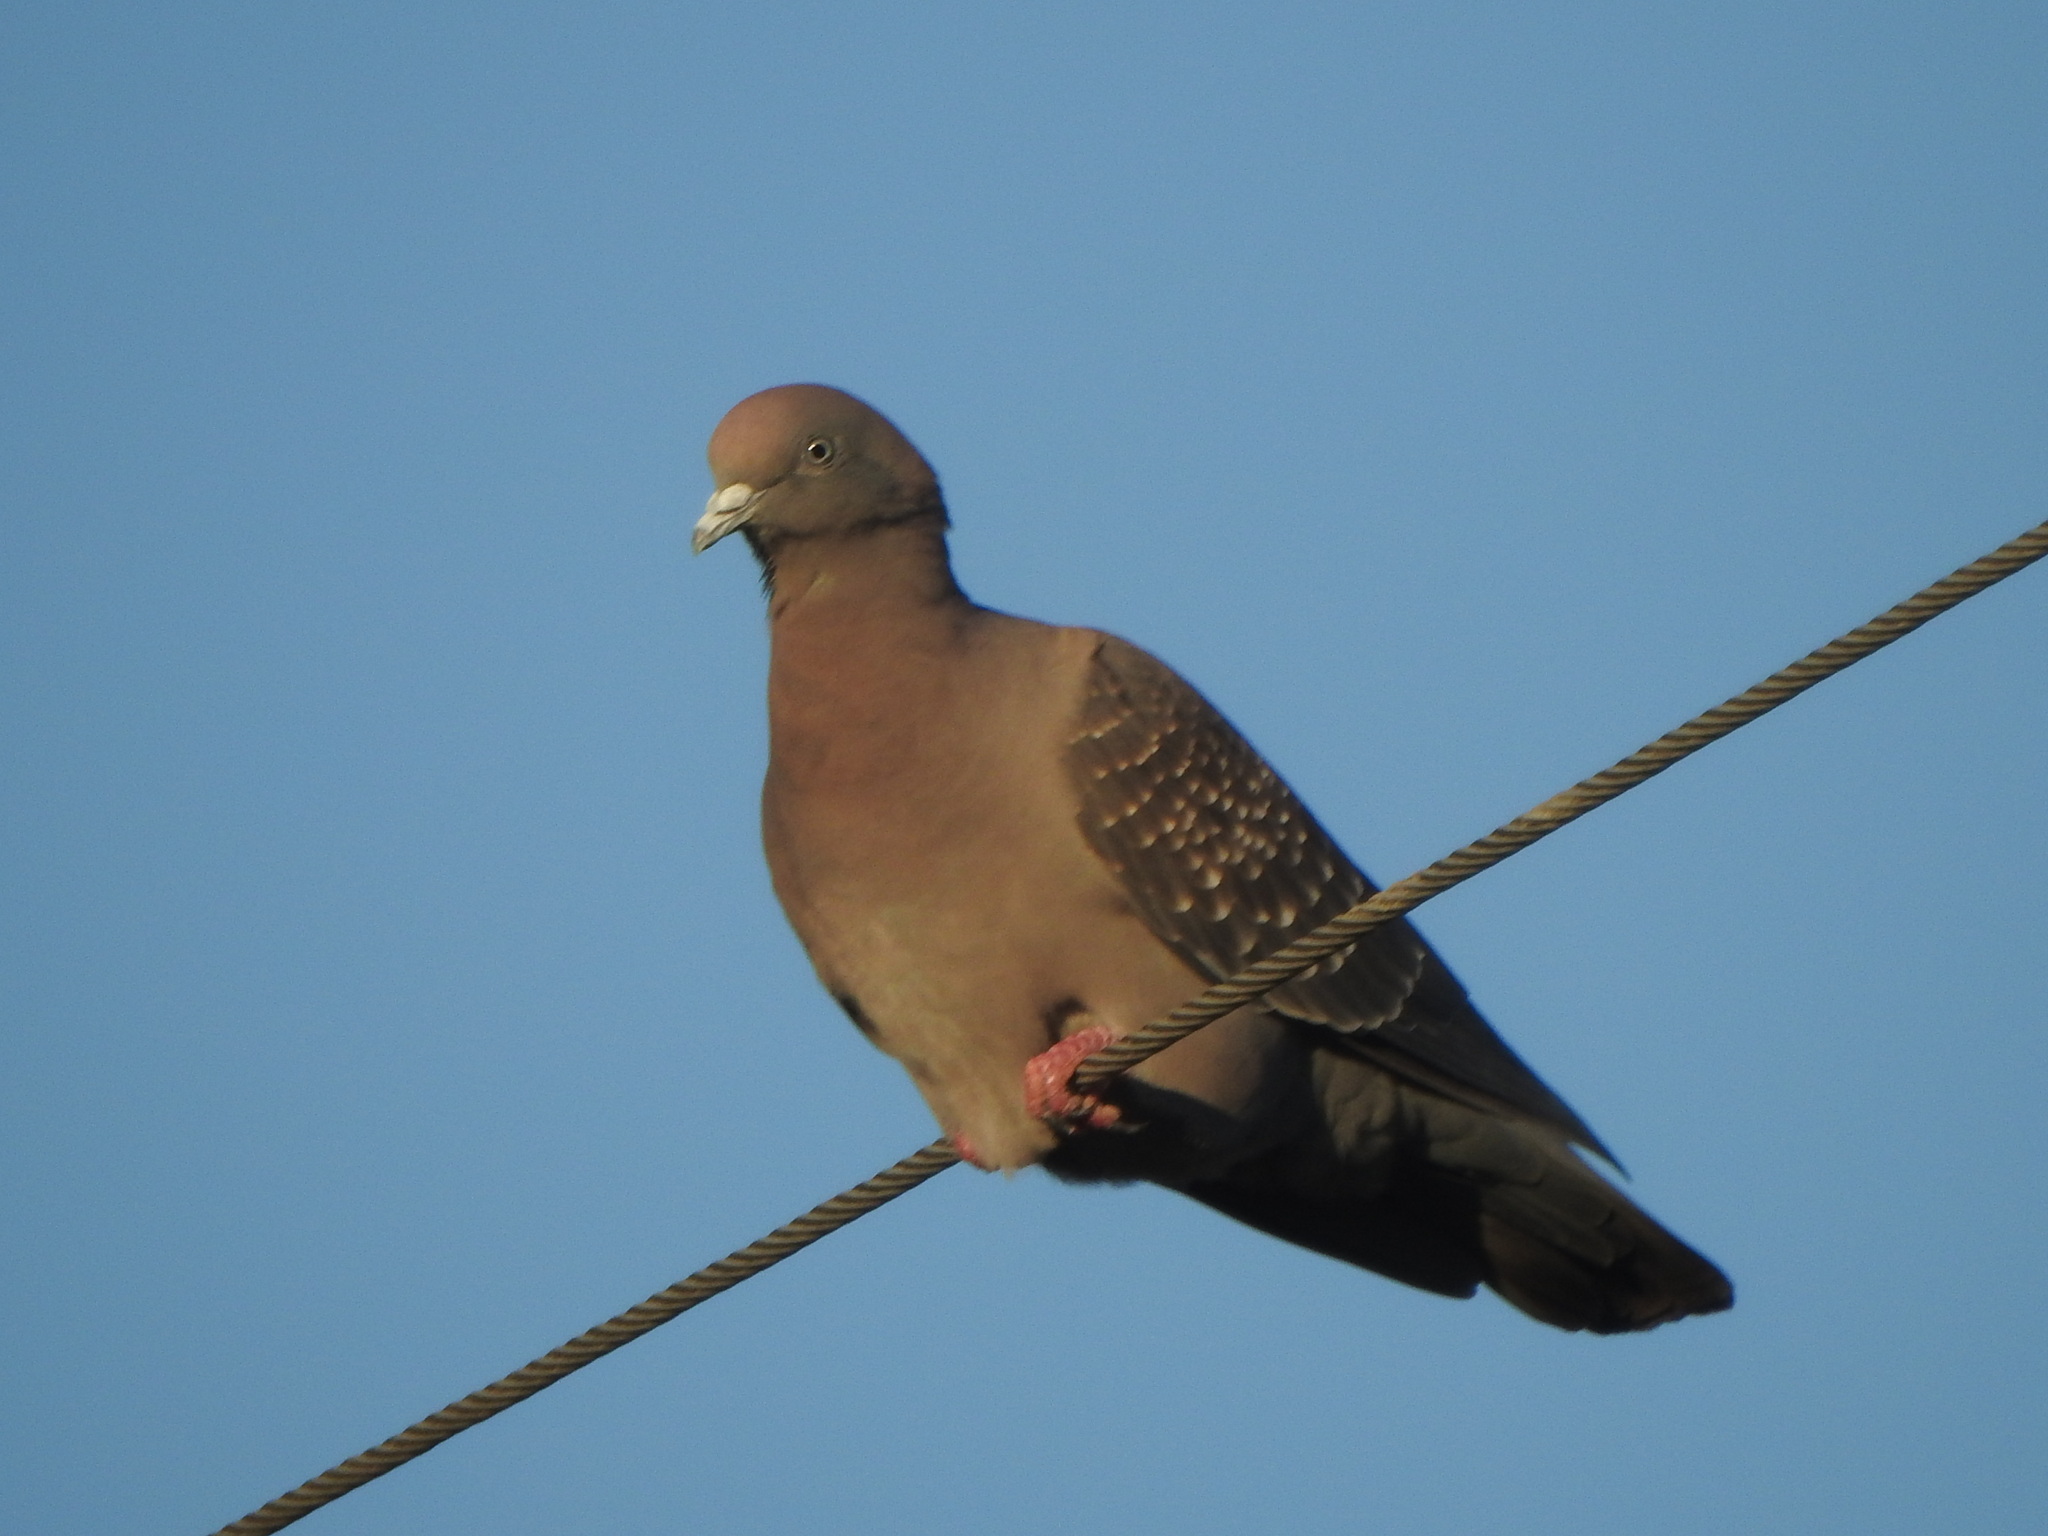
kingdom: Animalia
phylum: Chordata
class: Aves
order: Columbiformes
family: Columbidae
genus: Patagioenas
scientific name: Patagioenas maculosa
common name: Spot-winged pigeon
